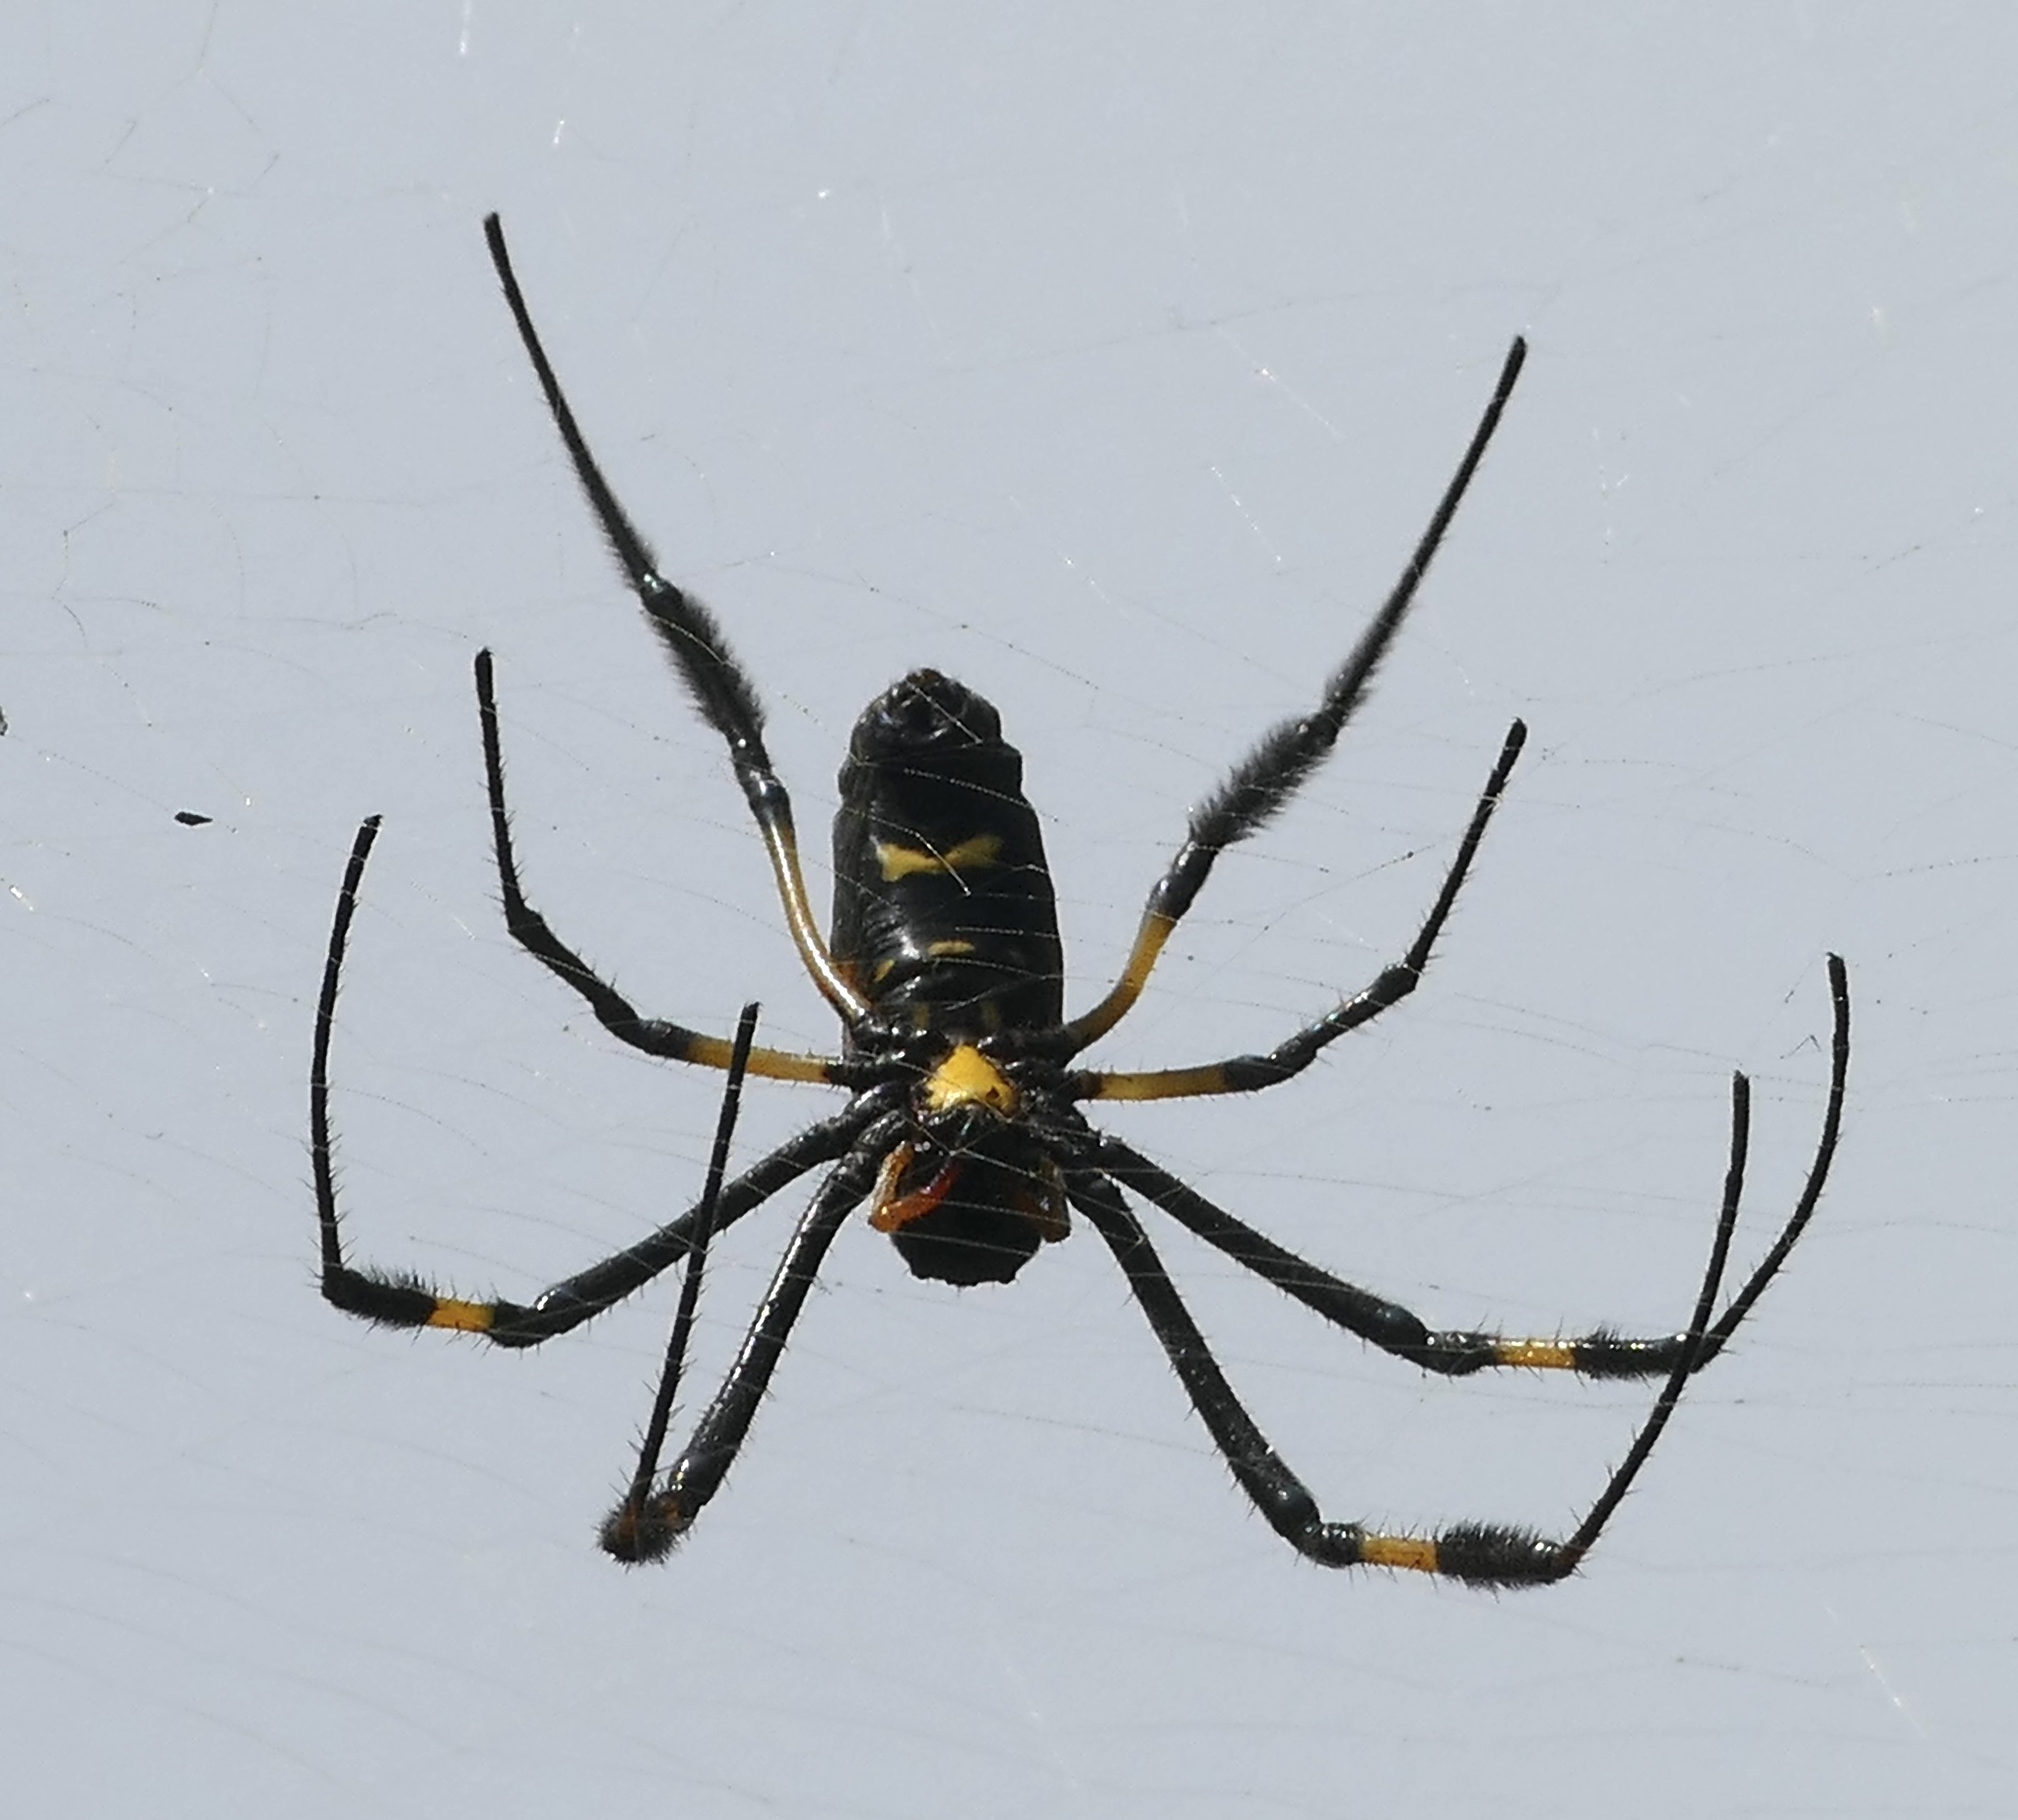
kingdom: Animalia
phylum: Arthropoda
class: Arachnida
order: Araneae
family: Araneidae
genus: Trichonephila
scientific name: Trichonephila senegalensis
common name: Banded golden orb weaver
